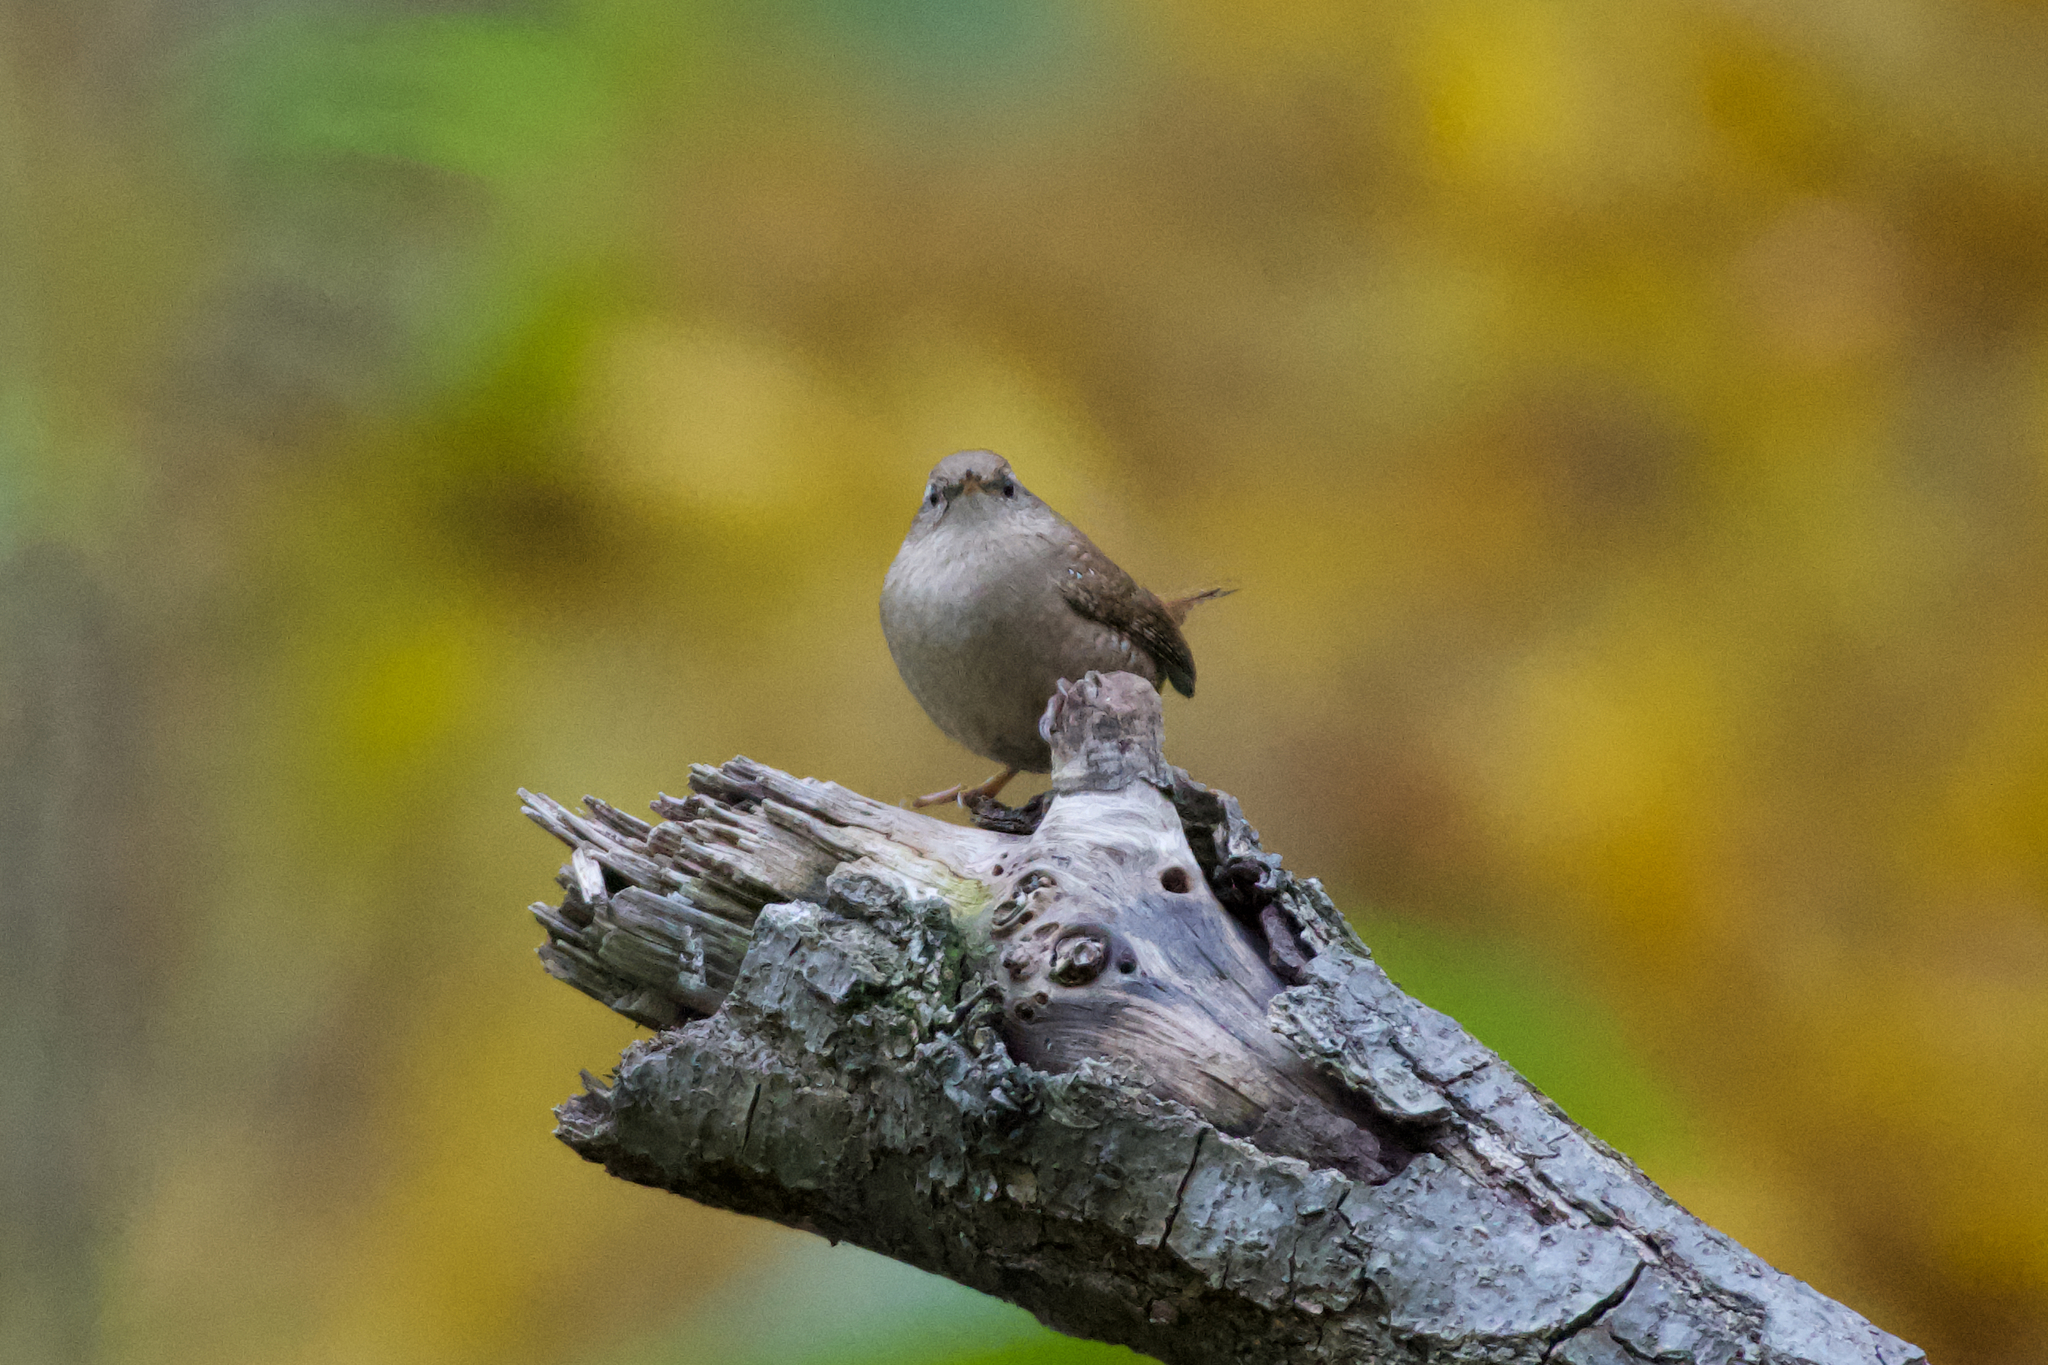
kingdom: Animalia
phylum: Chordata
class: Aves
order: Passeriformes
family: Troglodytidae
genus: Troglodytes
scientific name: Troglodytes troglodytes
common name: Eurasian wren
